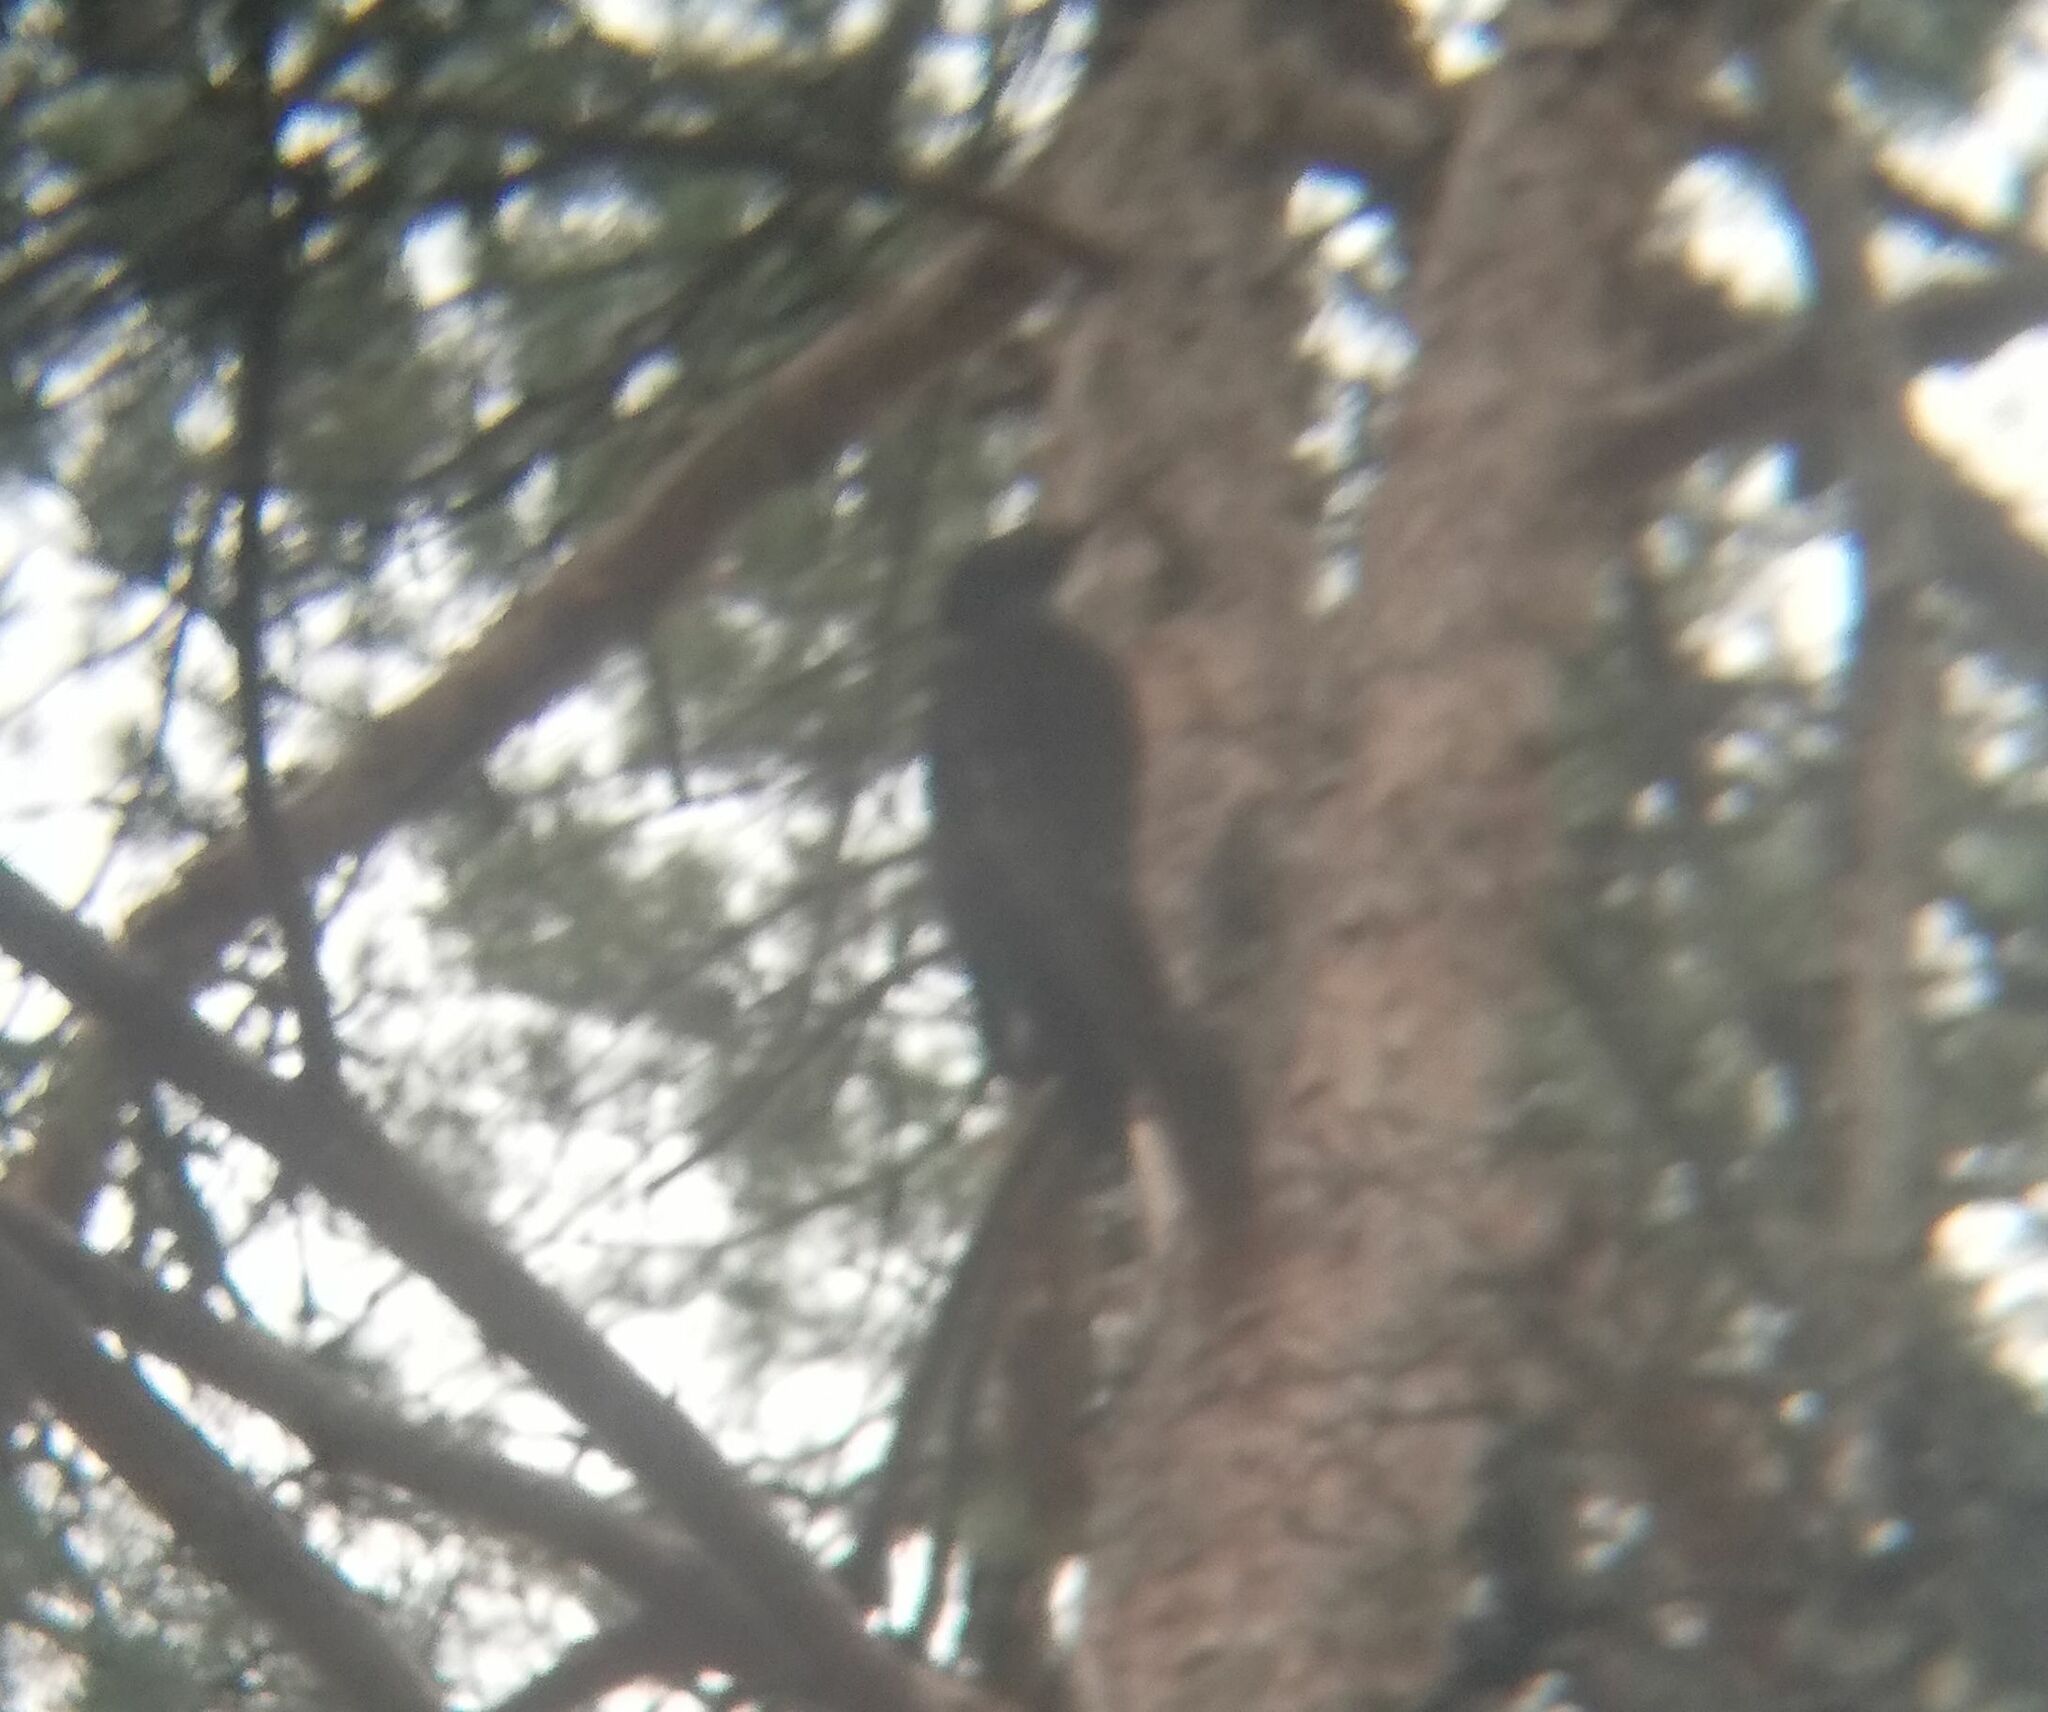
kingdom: Animalia
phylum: Chordata
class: Aves
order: Piciformes
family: Picidae
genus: Dryocopus
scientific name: Dryocopus martius
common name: Black woodpecker
